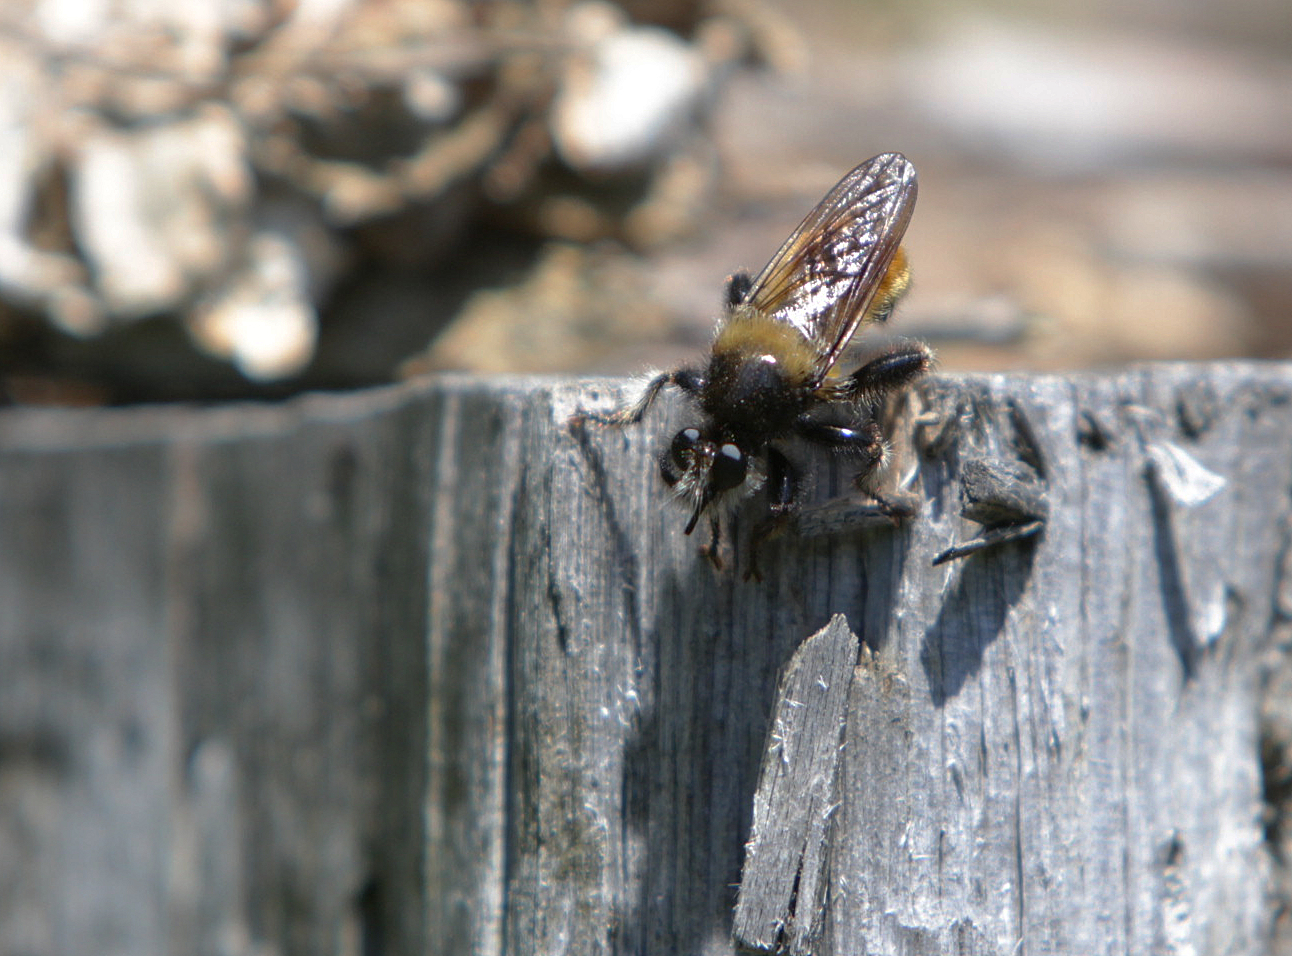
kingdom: Animalia
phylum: Arthropoda
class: Insecta
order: Diptera
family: Asilidae
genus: Laphria
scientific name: Laphria flava
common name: Bumblebee robberfly
